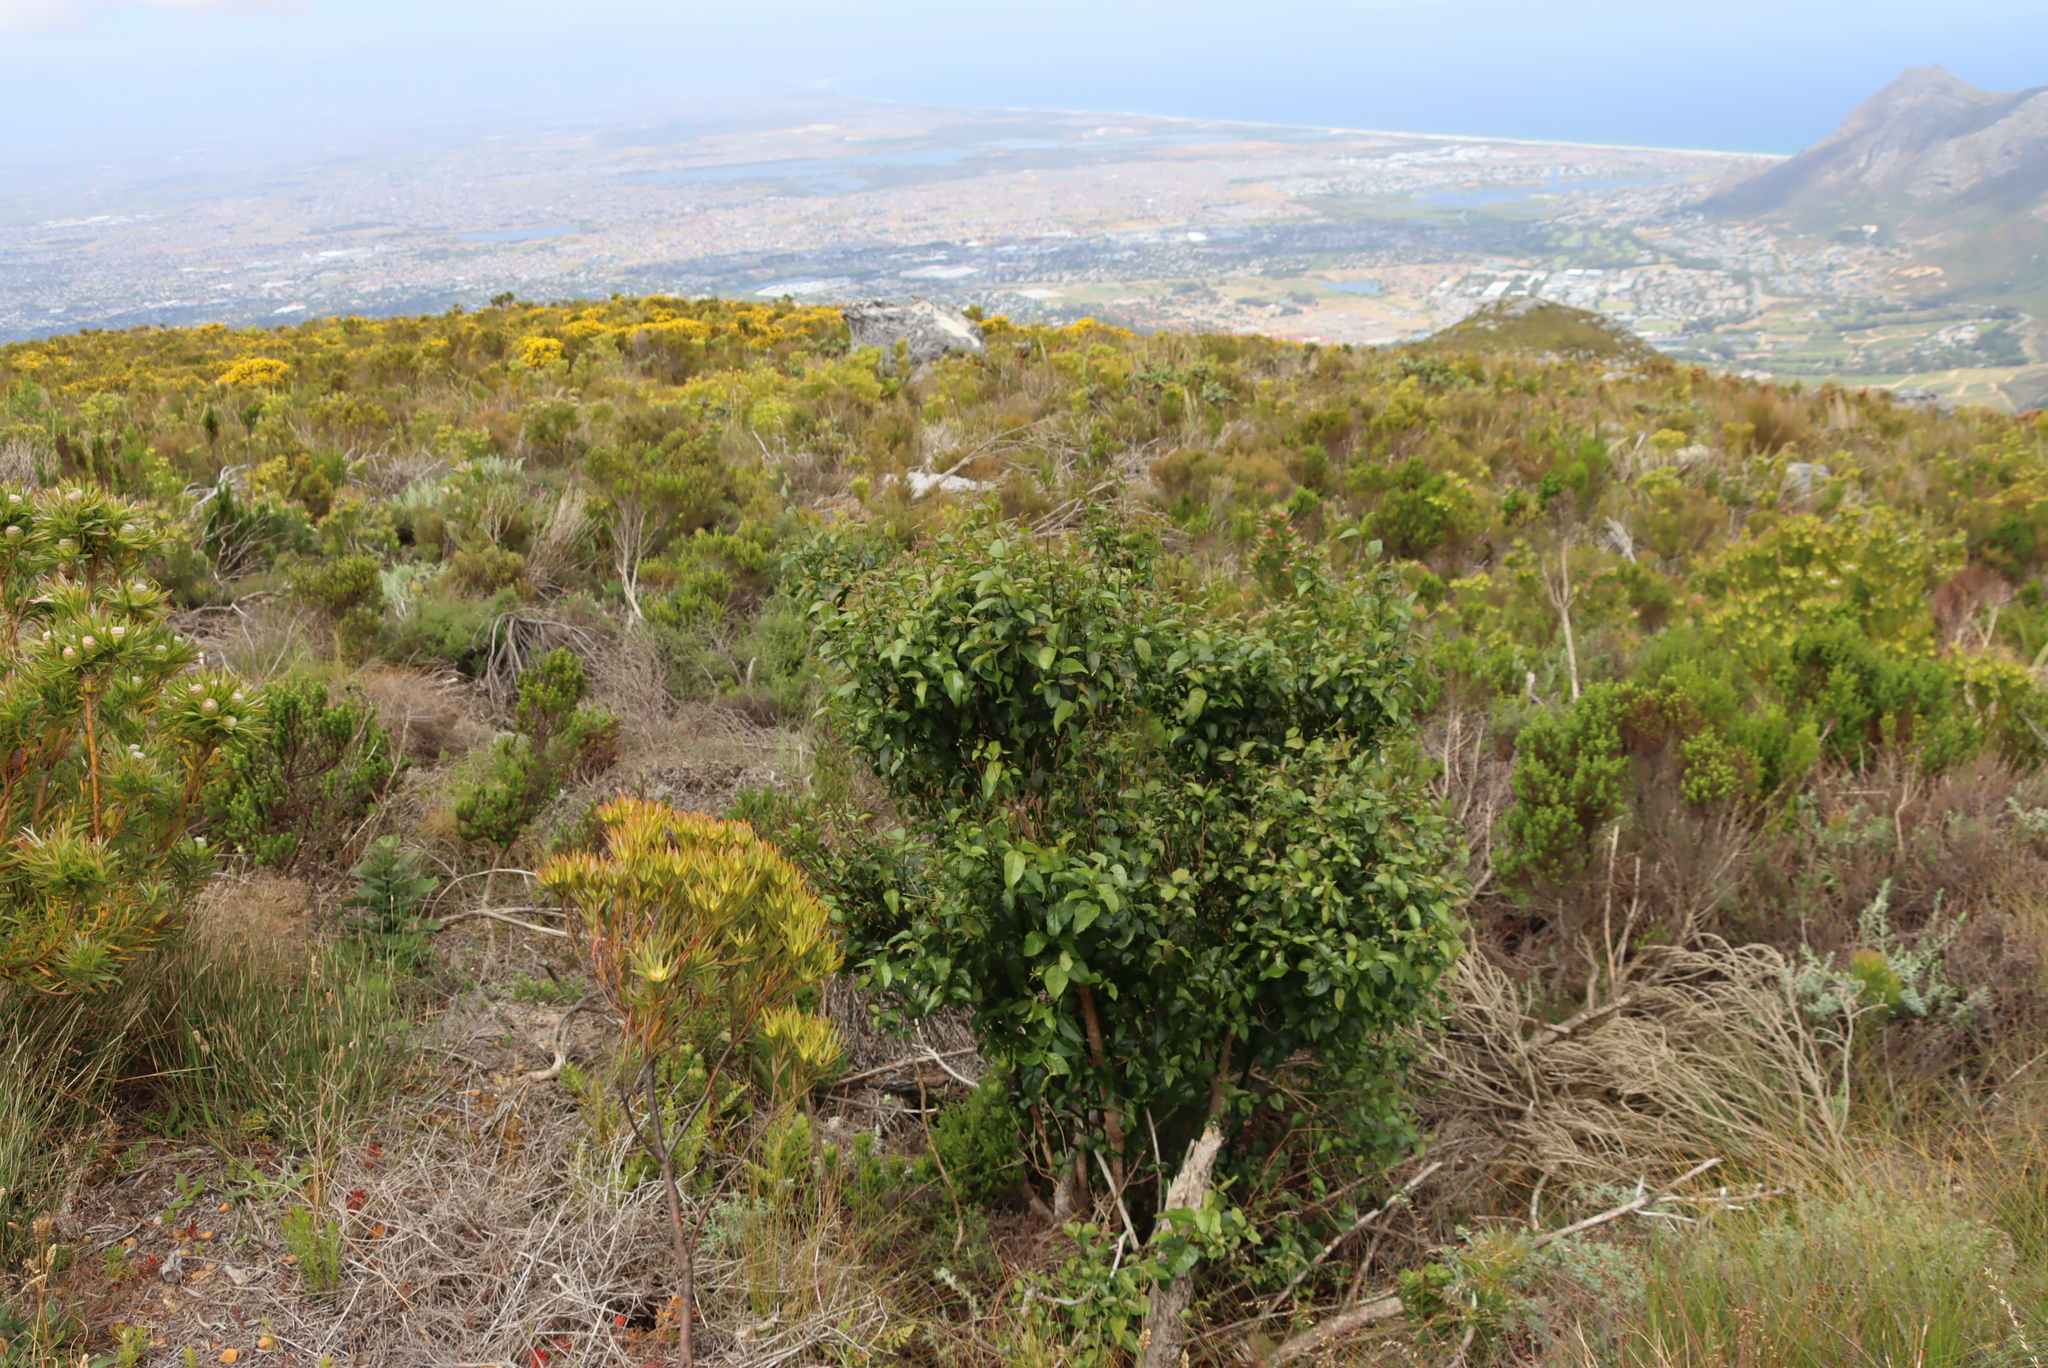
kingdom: Plantae
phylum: Tracheophyta
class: Magnoliopsida
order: Lamiales
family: Stilbaceae
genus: Halleria
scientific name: Halleria lucida
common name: Tree fuschia
